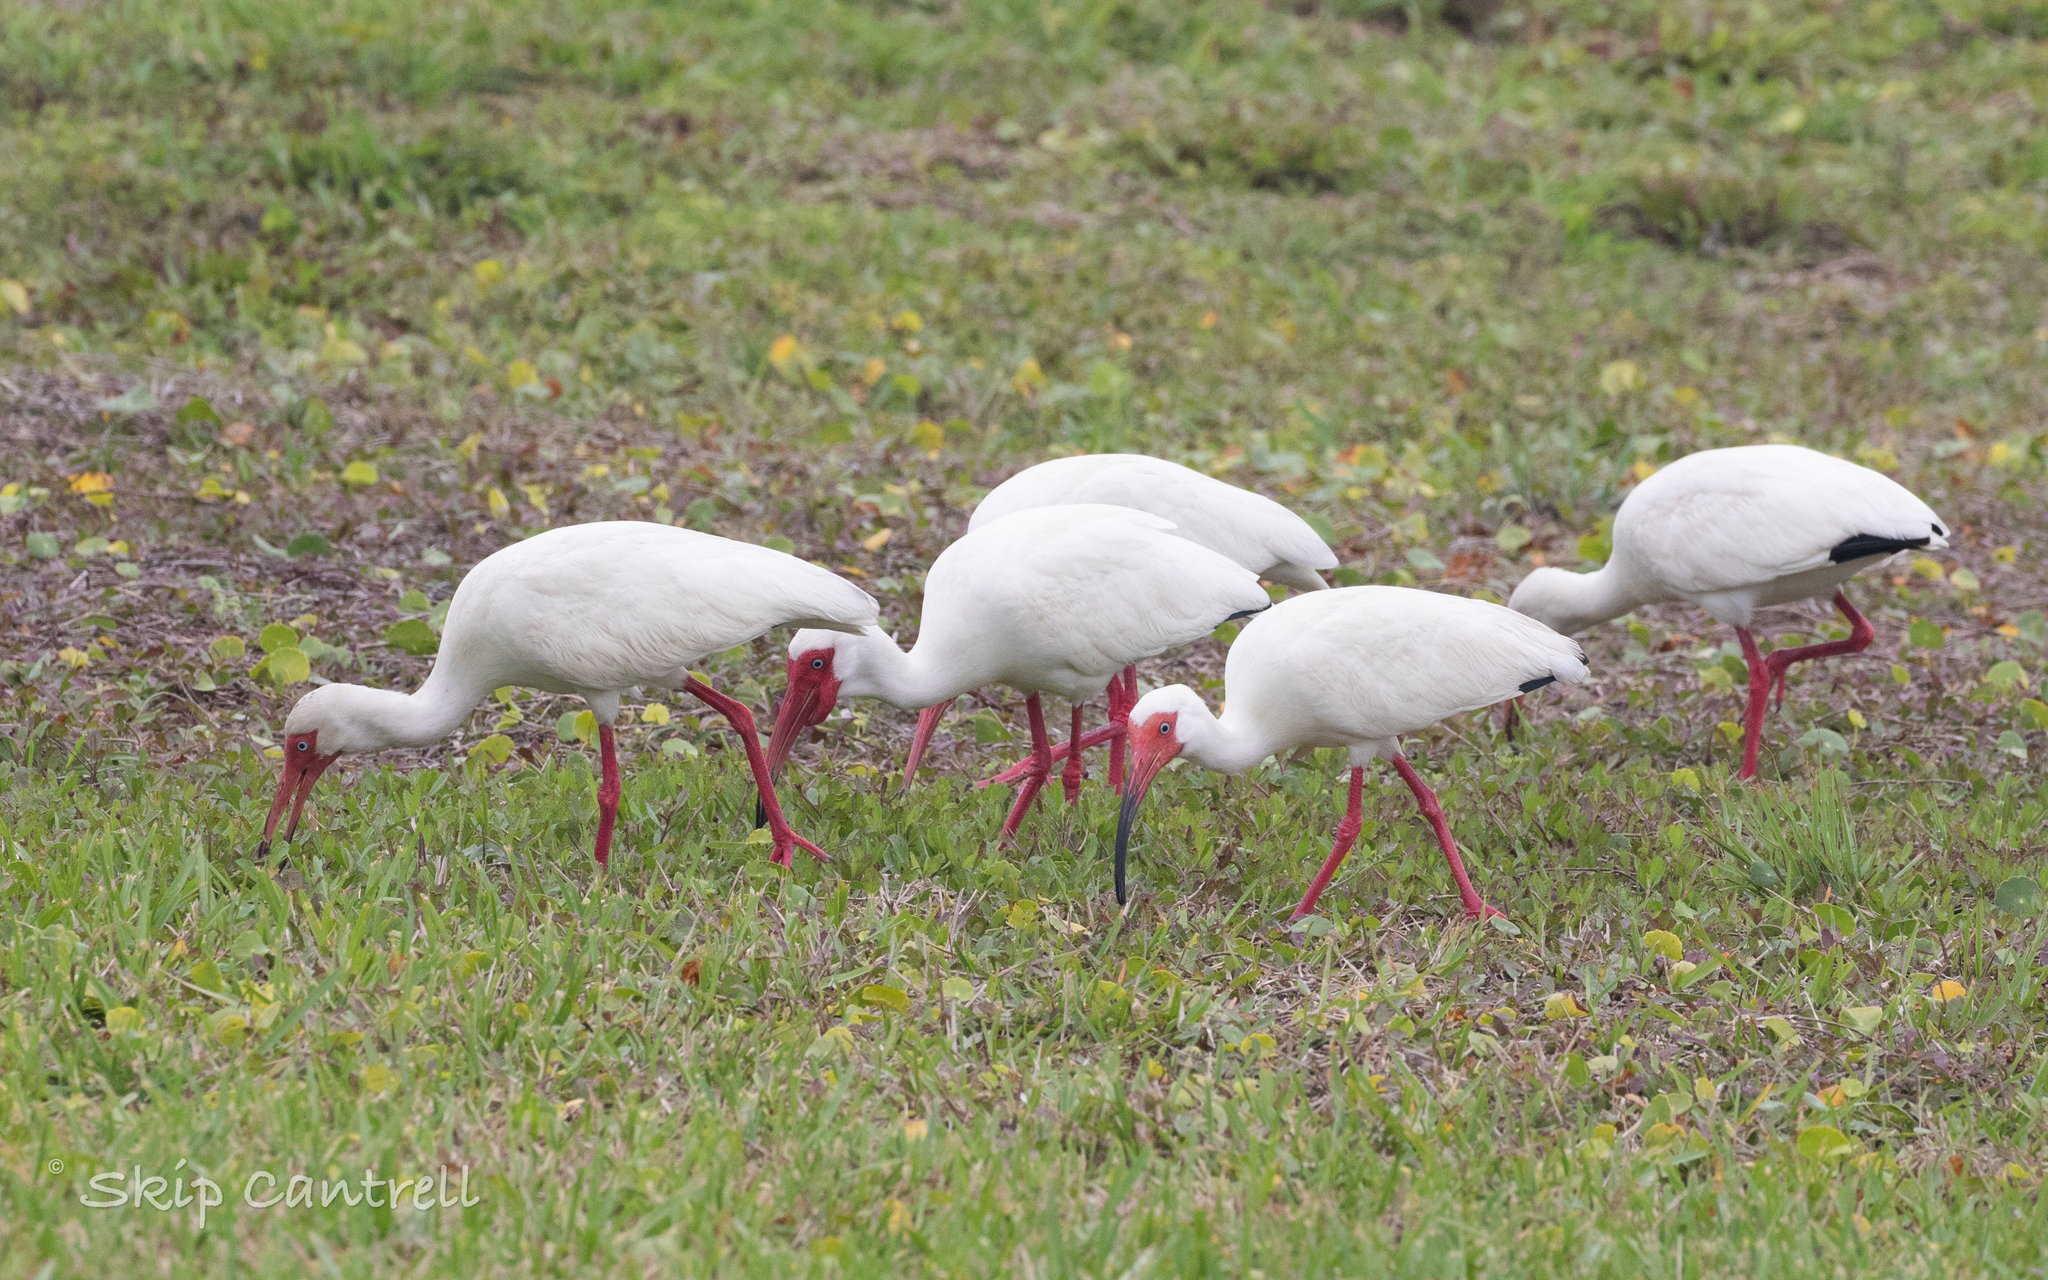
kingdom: Animalia
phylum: Chordata
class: Aves
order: Pelecaniformes
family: Threskiornithidae
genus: Eudocimus
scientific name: Eudocimus albus
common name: White ibis
